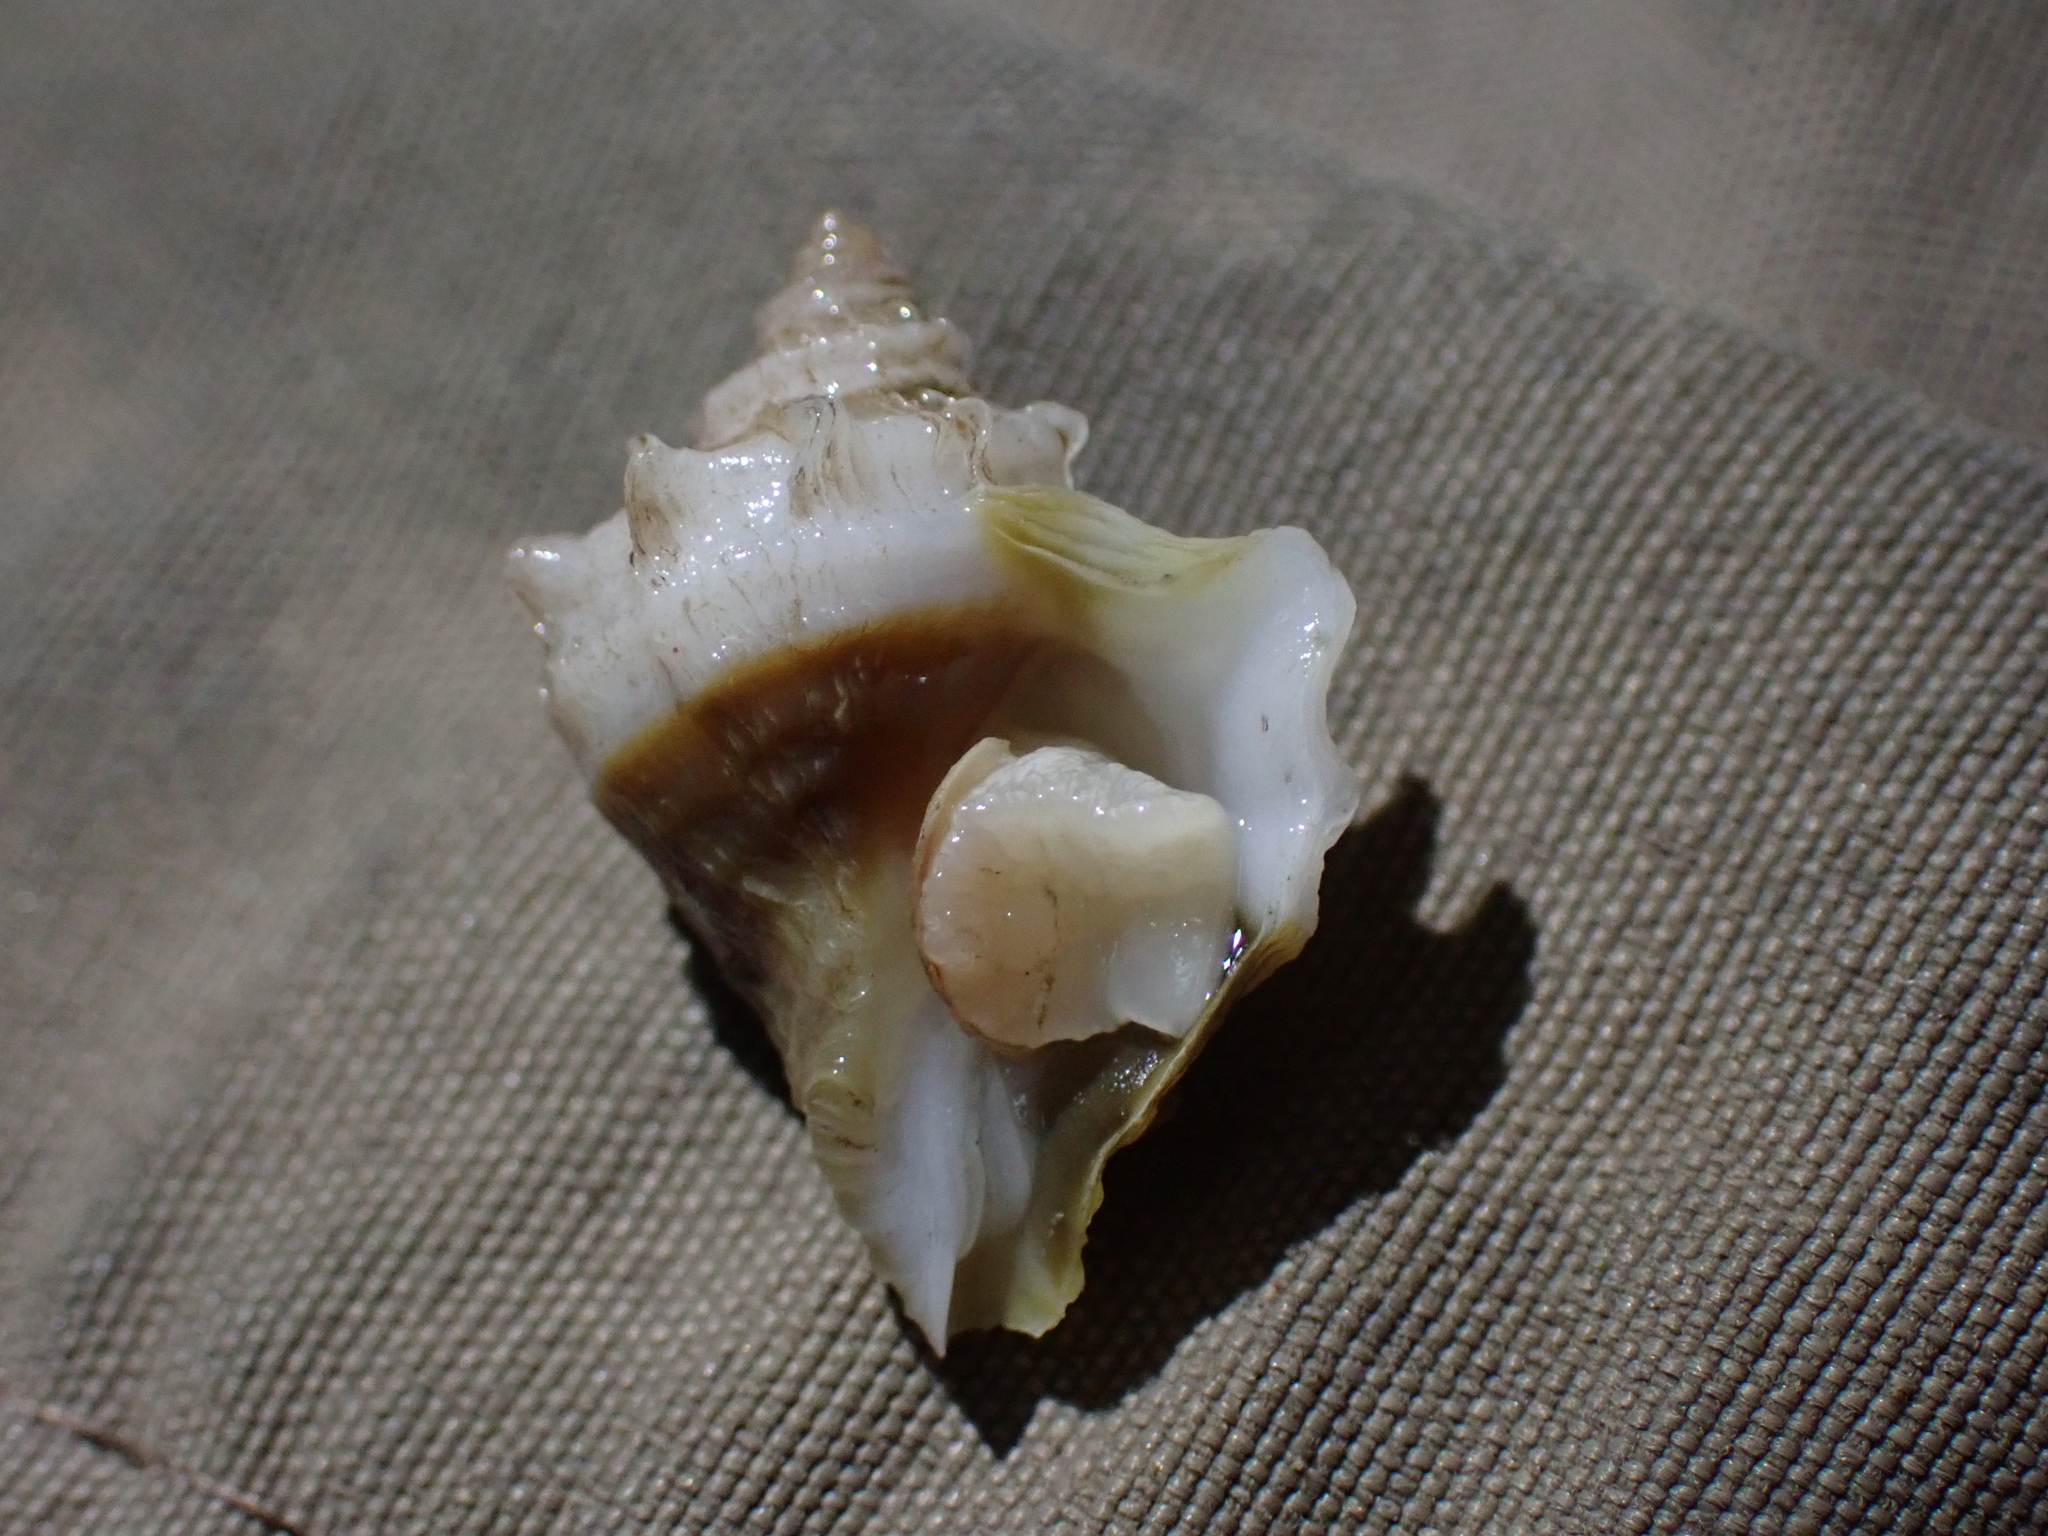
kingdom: Animalia
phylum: Mollusca
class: Gastropoda
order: Neogastropoda
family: Muricidae
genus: Nucella
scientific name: Nucella lamellosa
